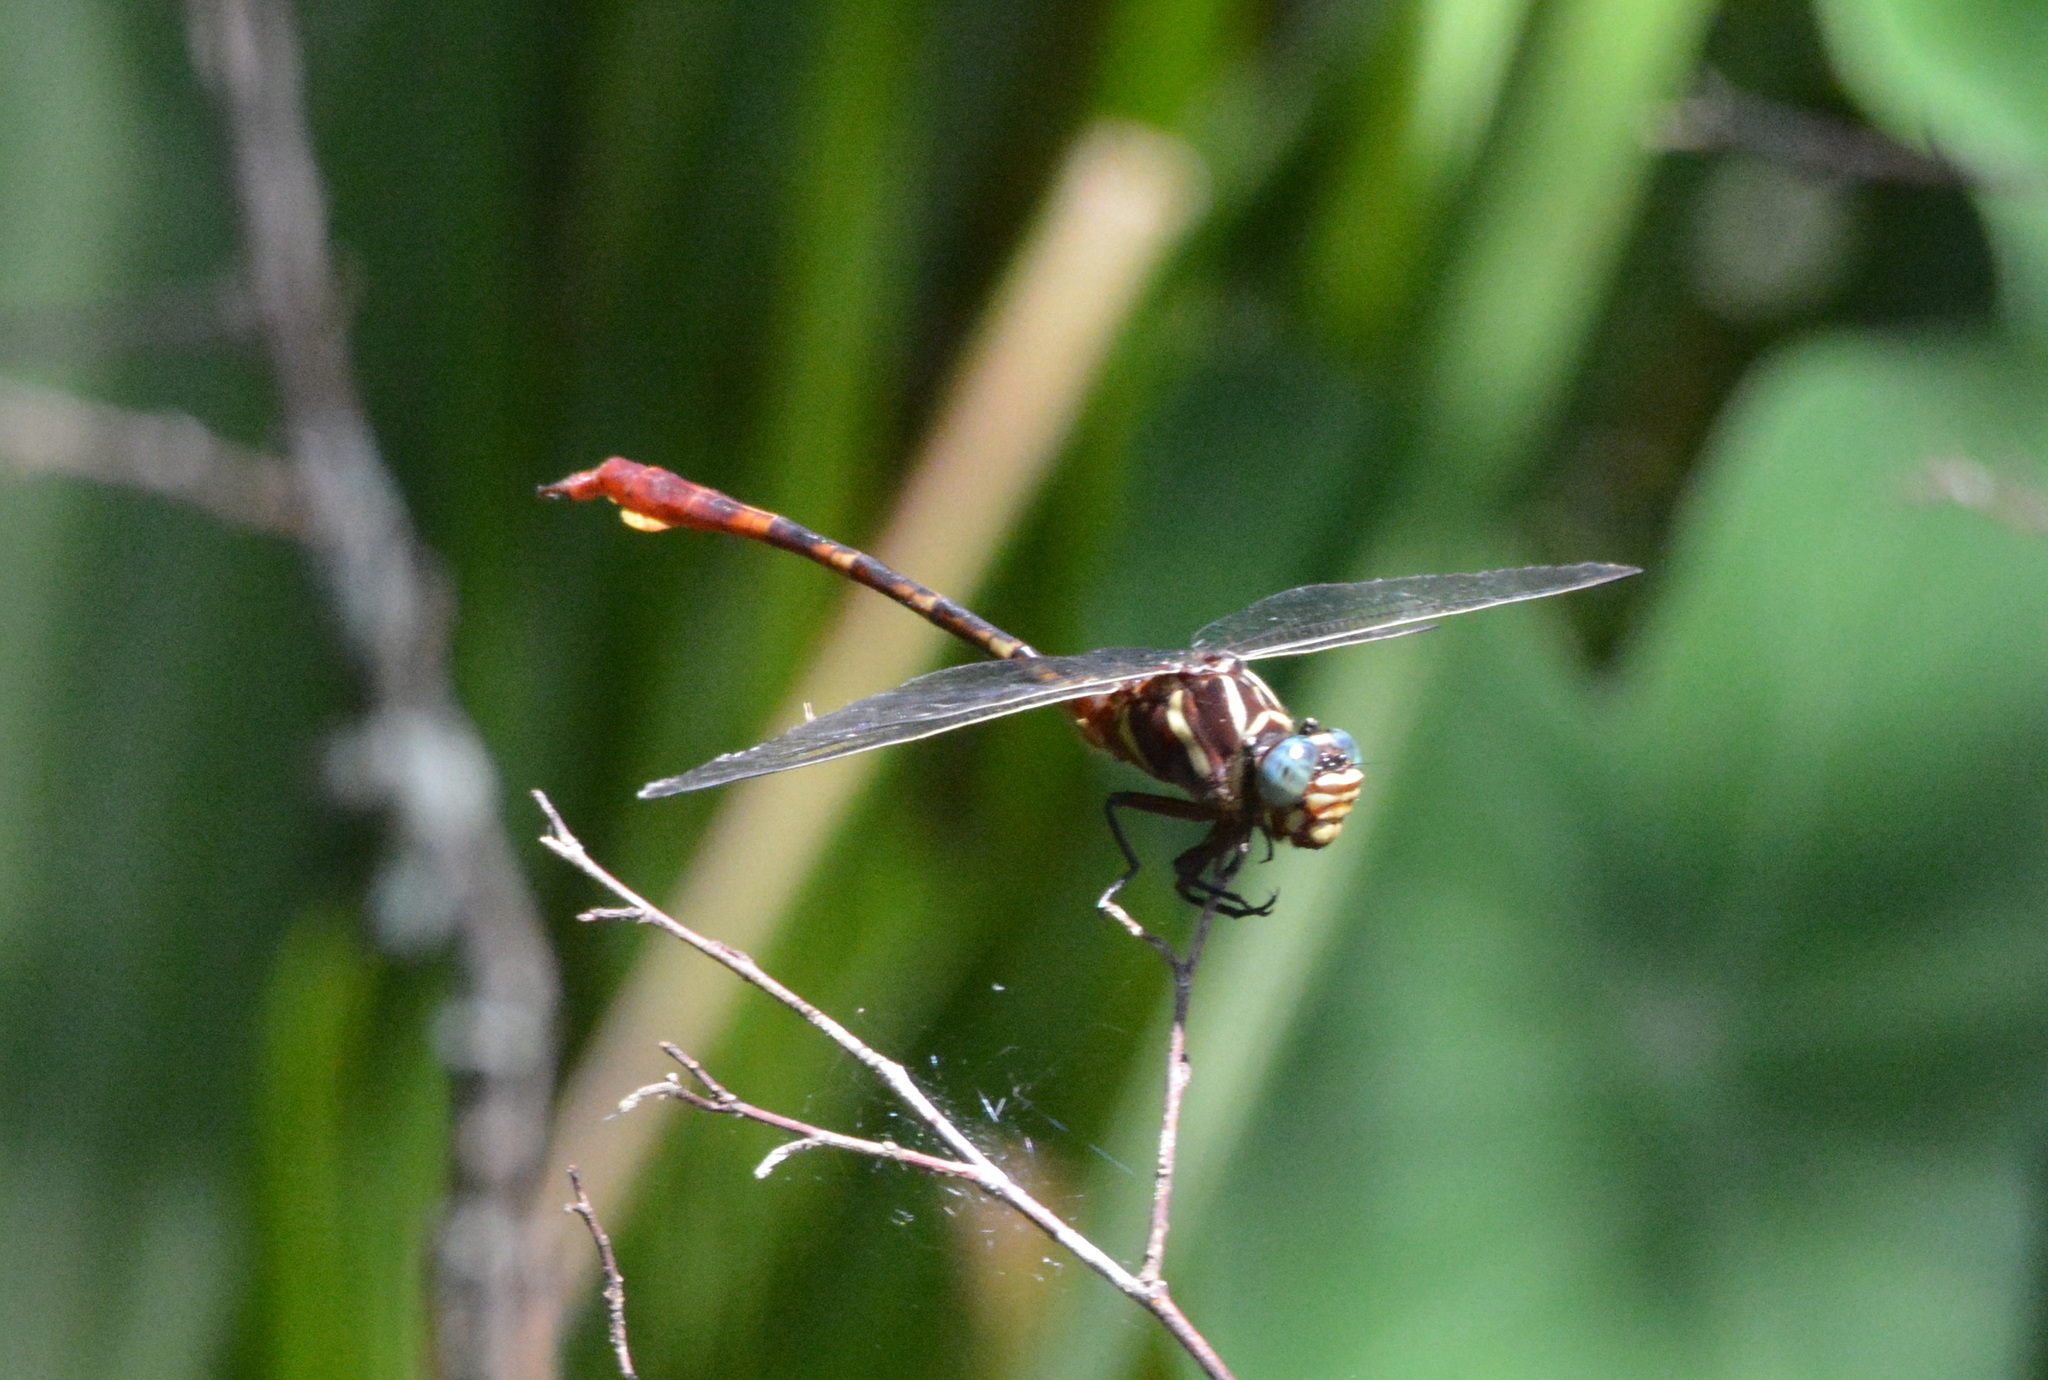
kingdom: Animalia
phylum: Arthropoda
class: Insecta
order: Odonata
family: Gomphidae
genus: Aphylla
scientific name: Aphylla williamsoni
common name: Two-striped forceptail
